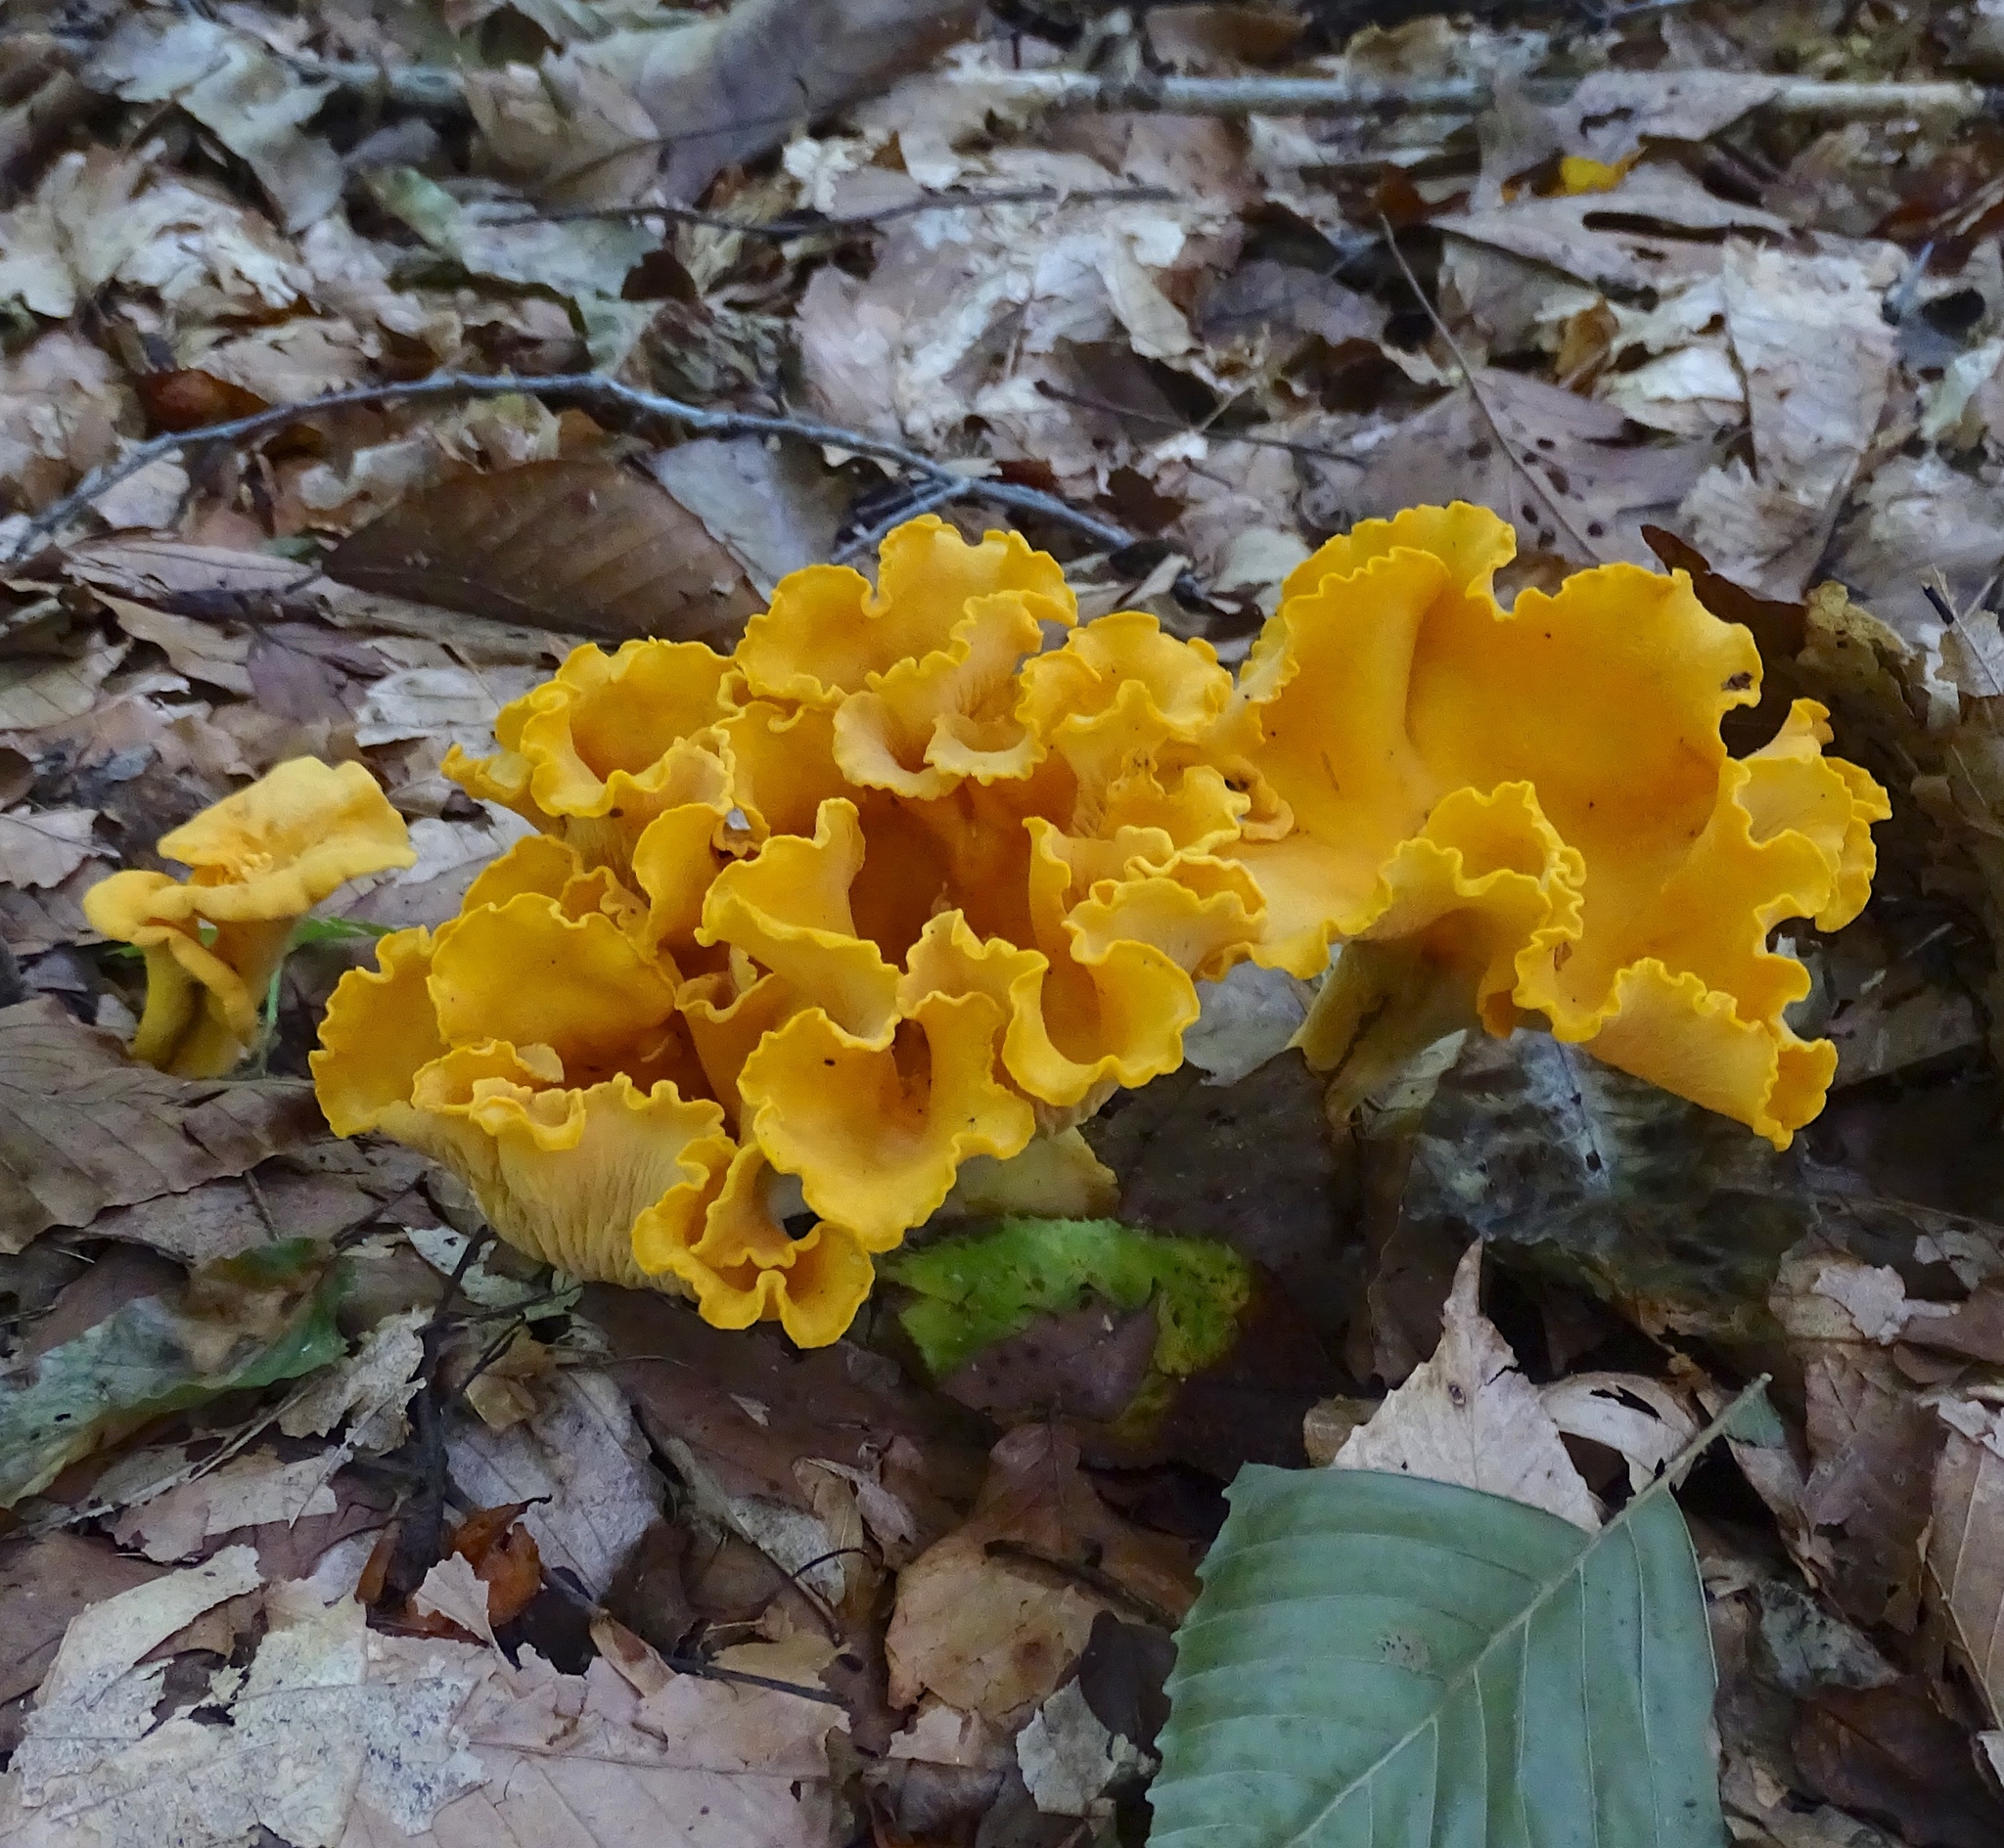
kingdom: Fungi
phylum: Basidiomycota
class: Agaricomycetes
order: Cantharellales
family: Hydnaceae
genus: Cantharellus
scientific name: Cantharellus flavolateritius
